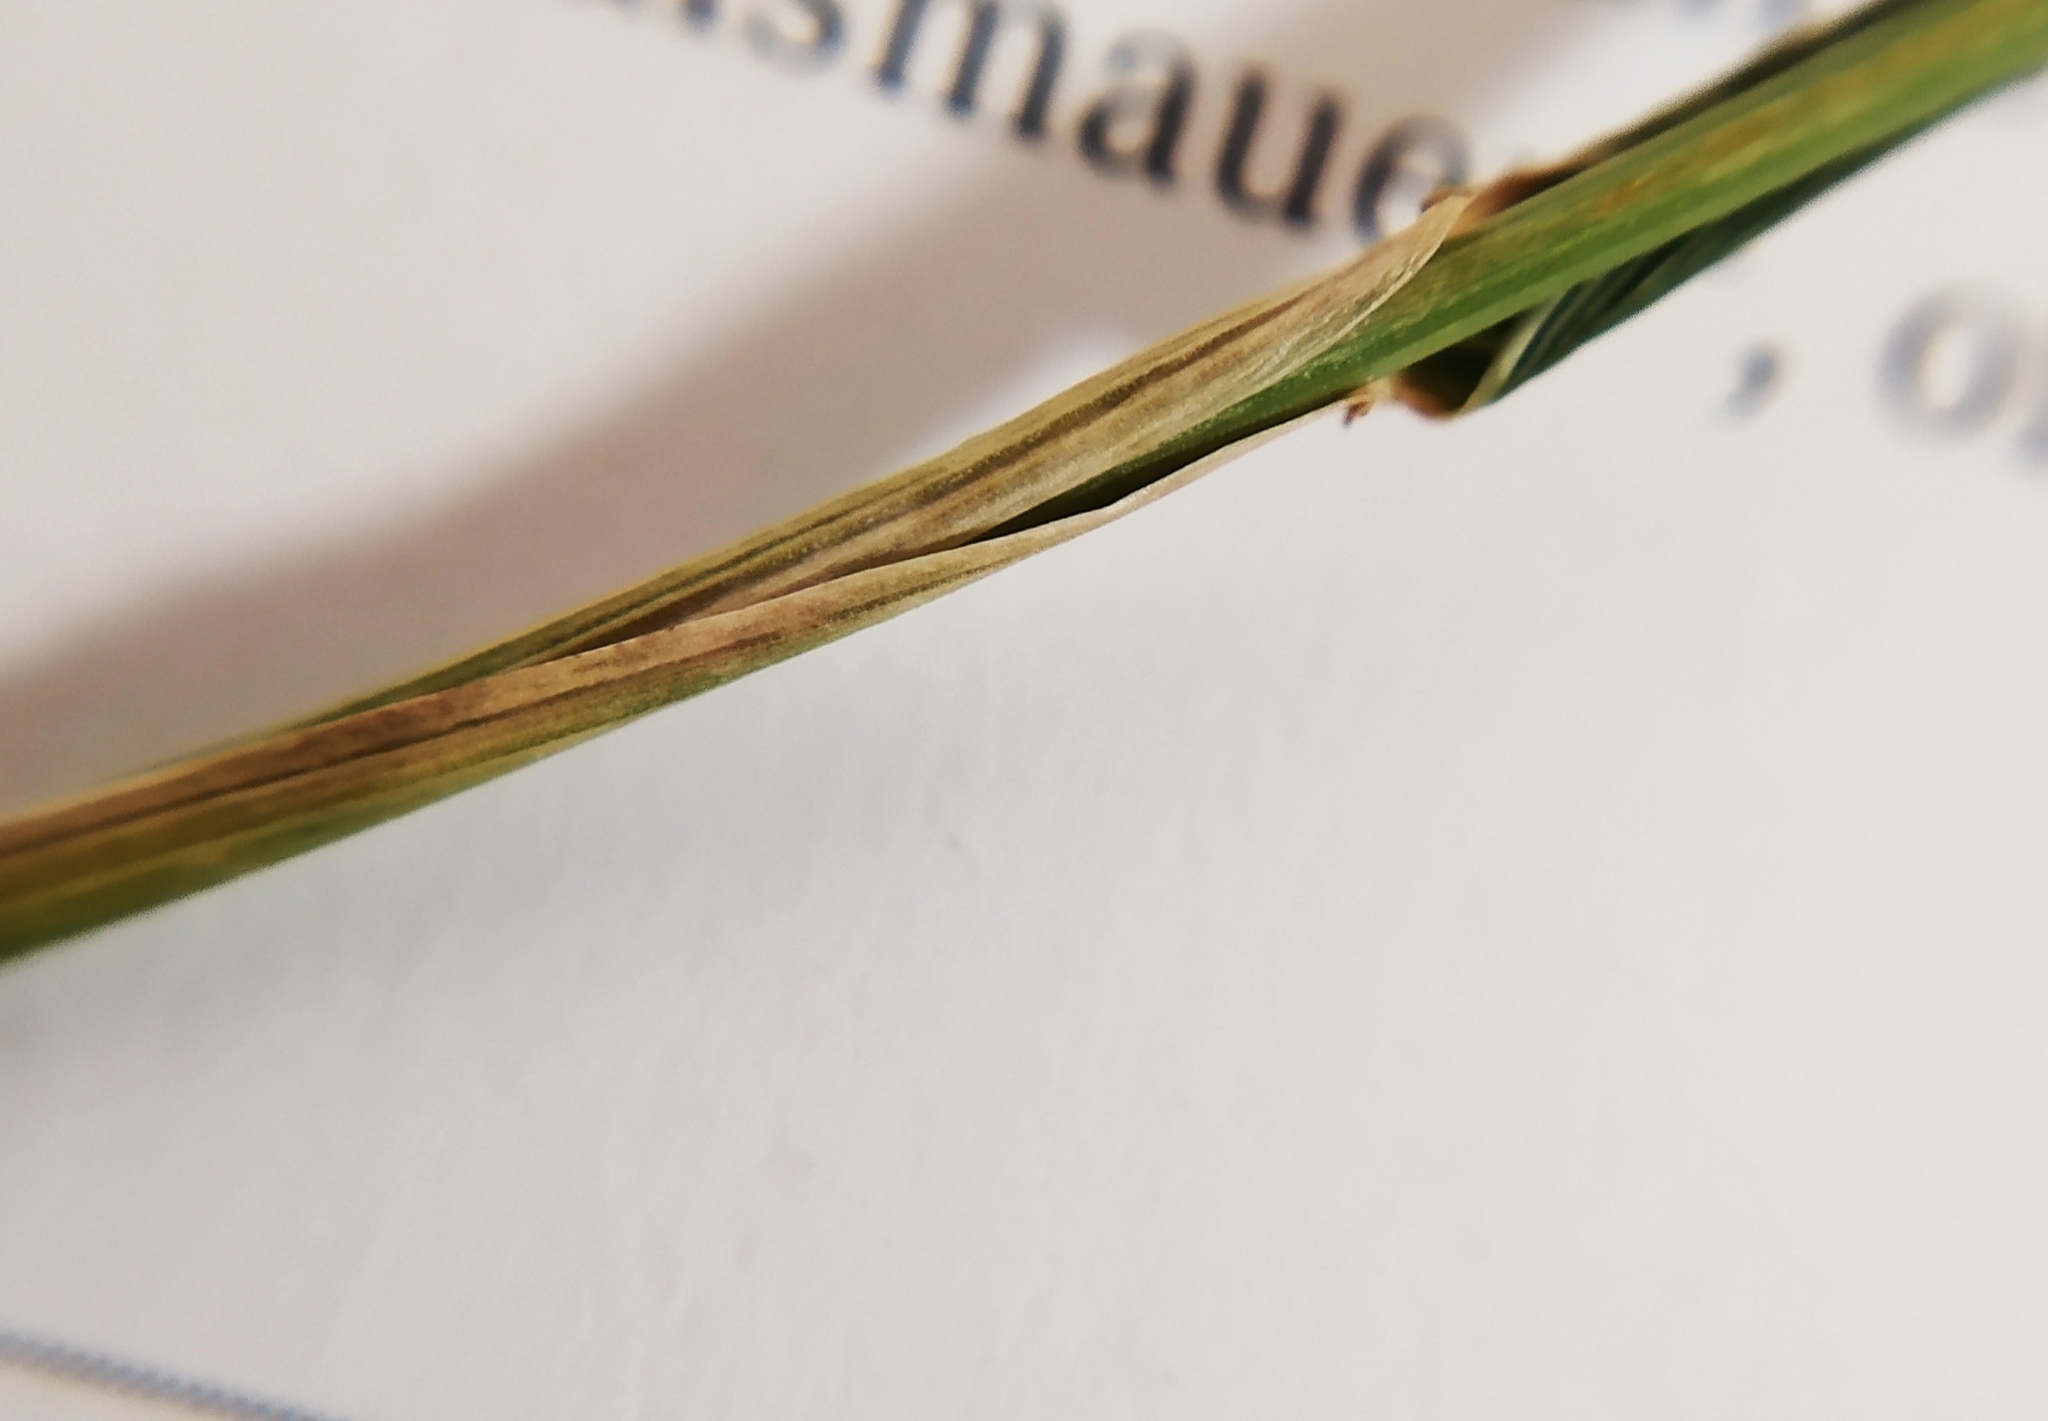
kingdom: Plantae
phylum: Tracheophyta
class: Liliopsida
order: Poales
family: Poaceae
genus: Elymus
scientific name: Elymus repens
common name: Quackgrass
